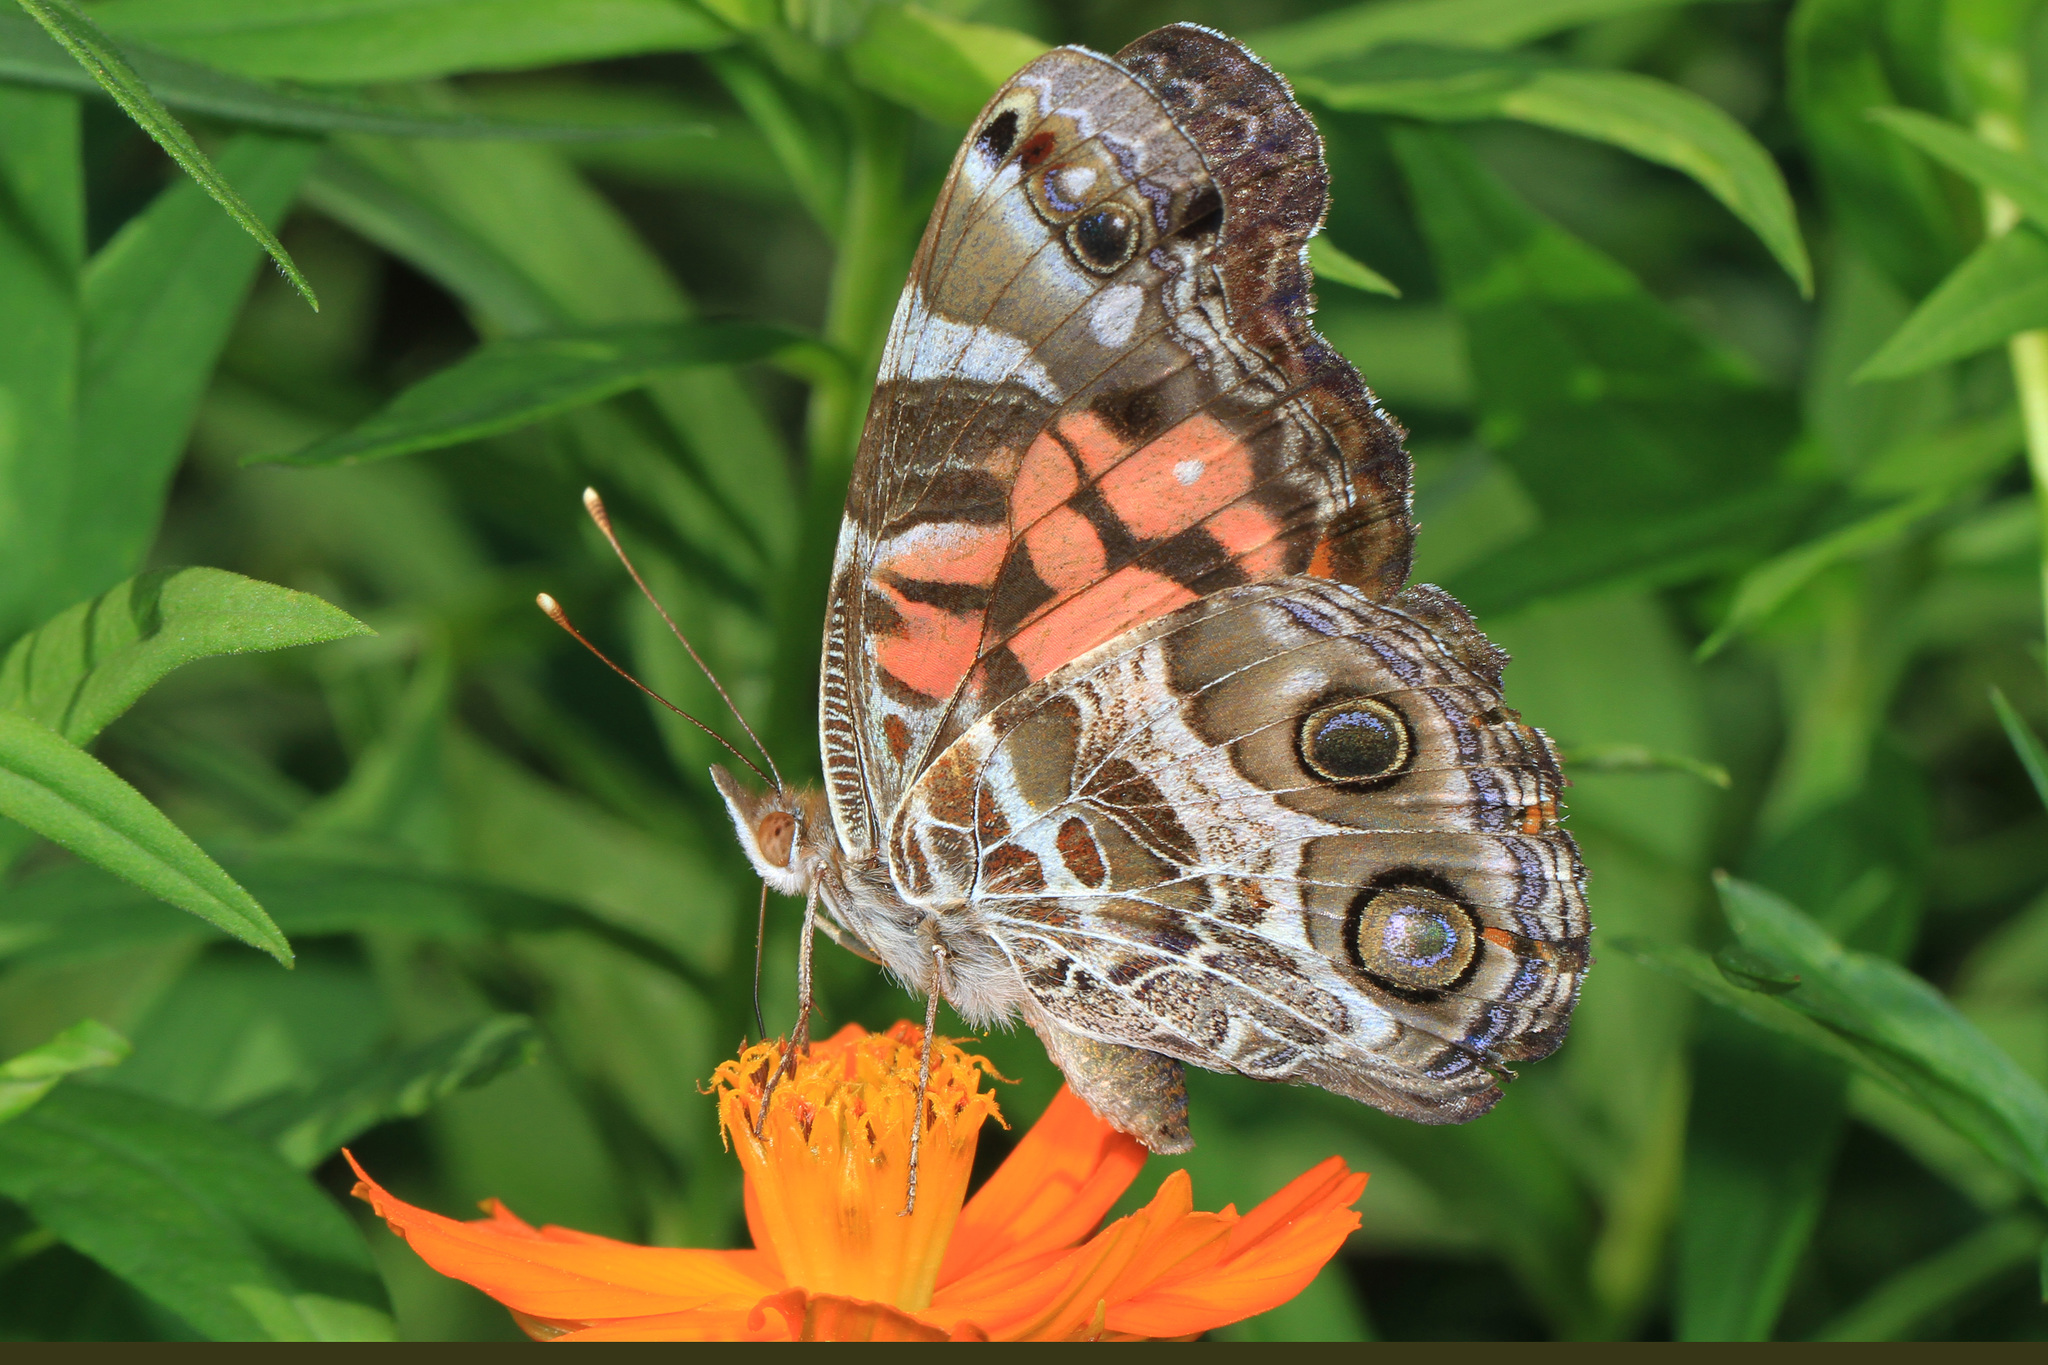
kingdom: Animalia
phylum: Arthropoda
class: Insecta
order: Lepidoptera
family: Nymphalidae
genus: Vanessa
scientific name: Vanessa virginiensis
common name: American lady
